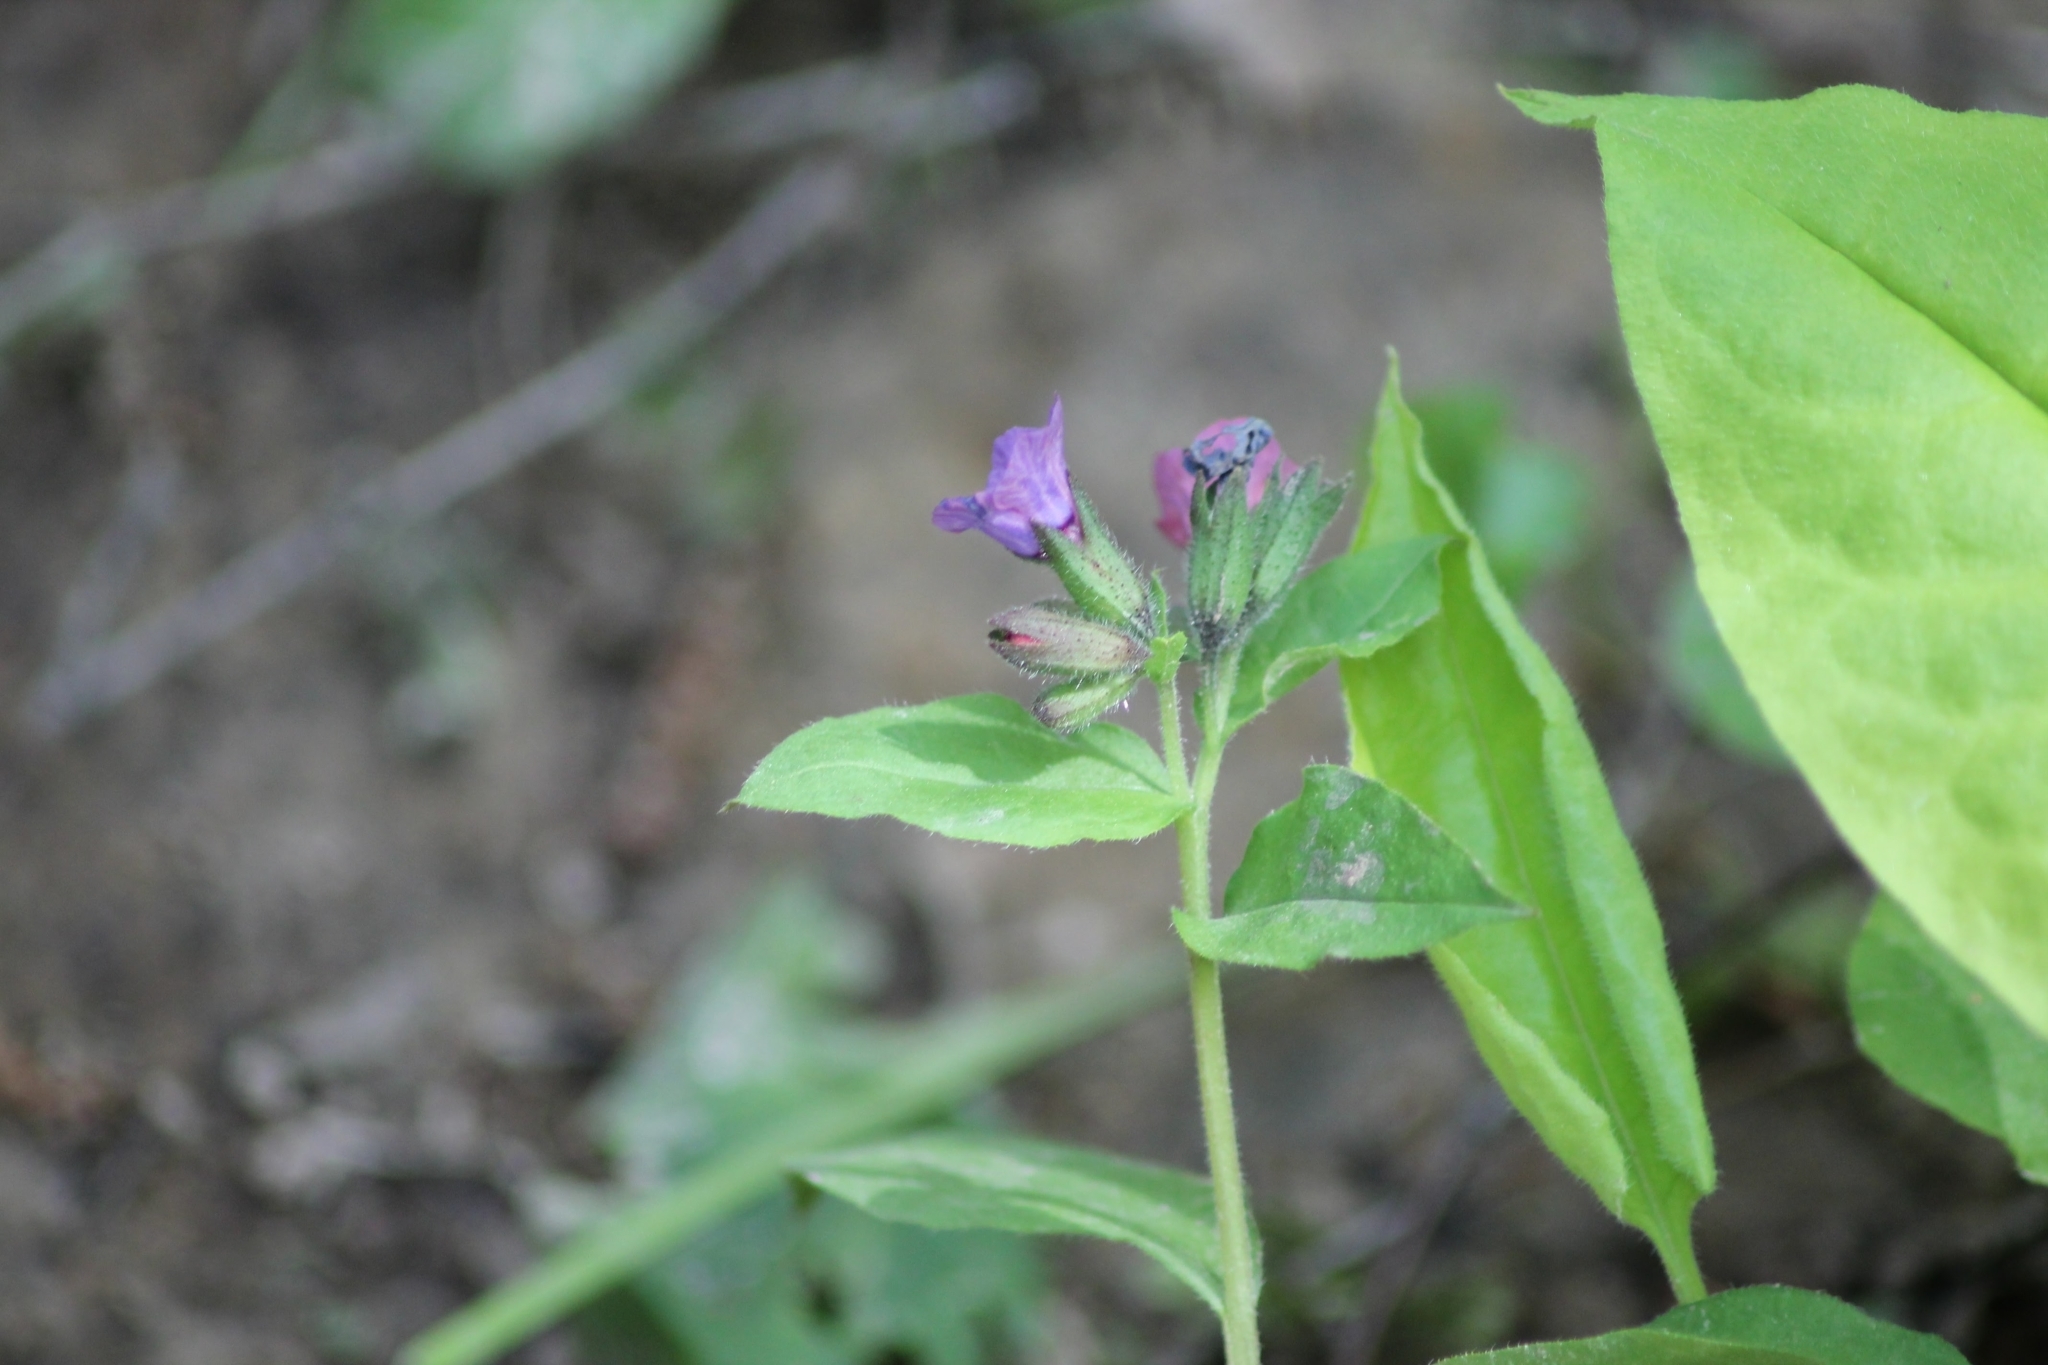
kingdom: Plantae
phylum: Tracheophyta
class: Magnoliopsida
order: Boraginales
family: Boraginaceae
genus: Pulmonaria
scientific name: Pulmonaria obscura
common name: Suffolk lungwort
